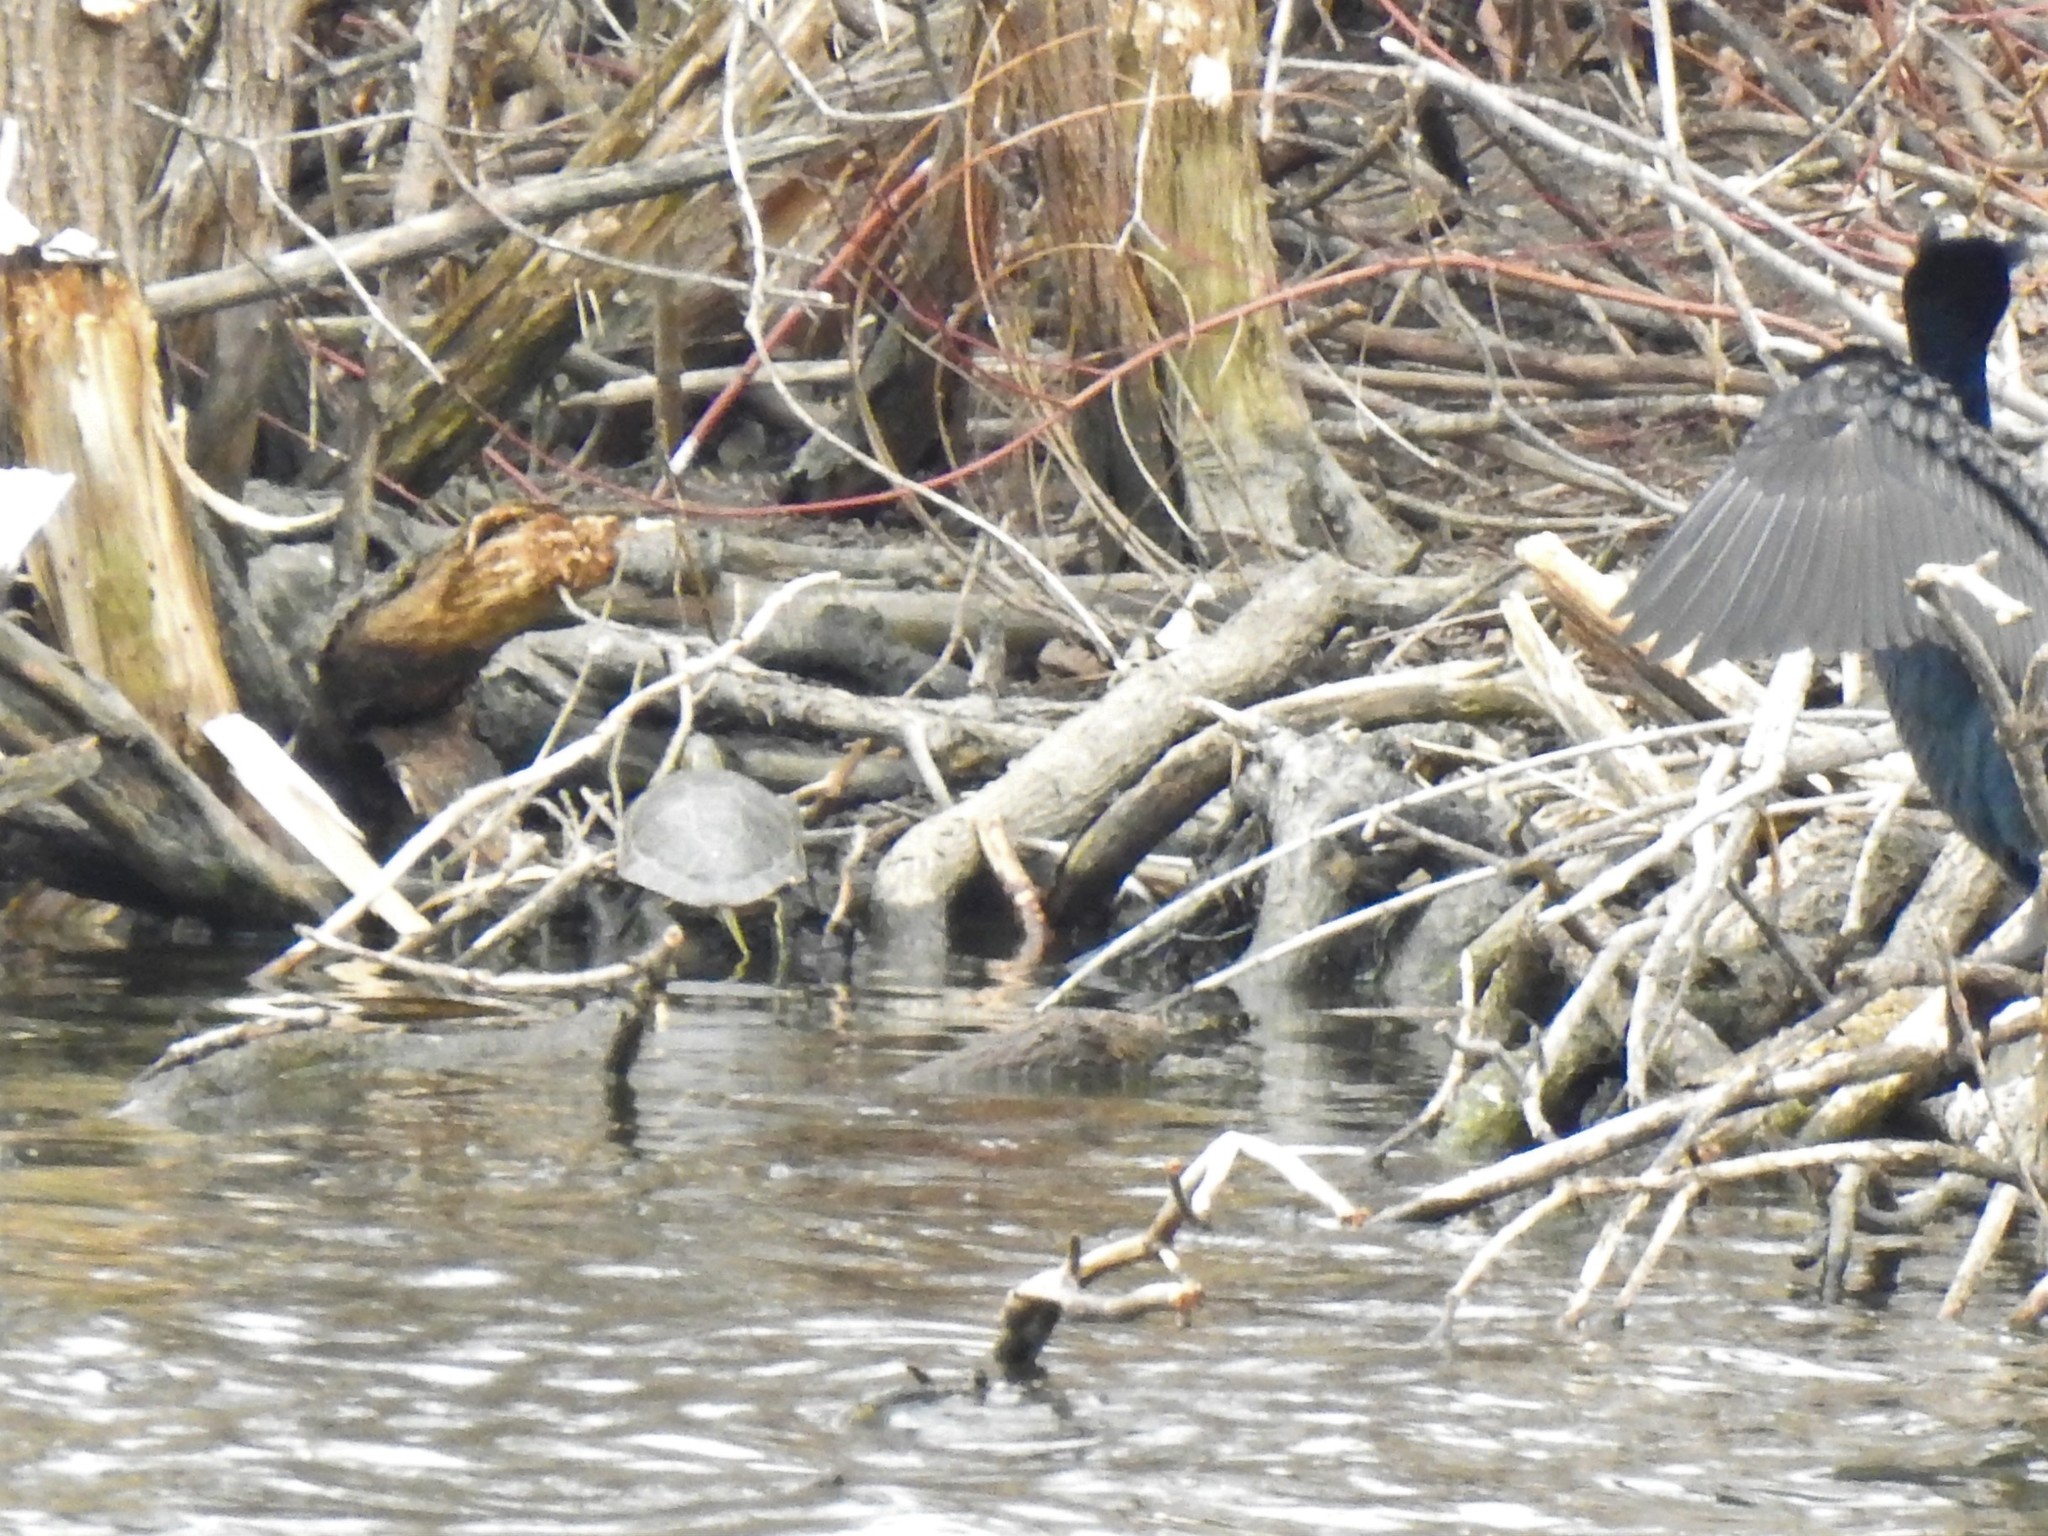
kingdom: Animalia
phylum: Chordata
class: Testudines
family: Emydidae
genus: Chrysemys
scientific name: Chrysemys picta
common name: Painted turtle
